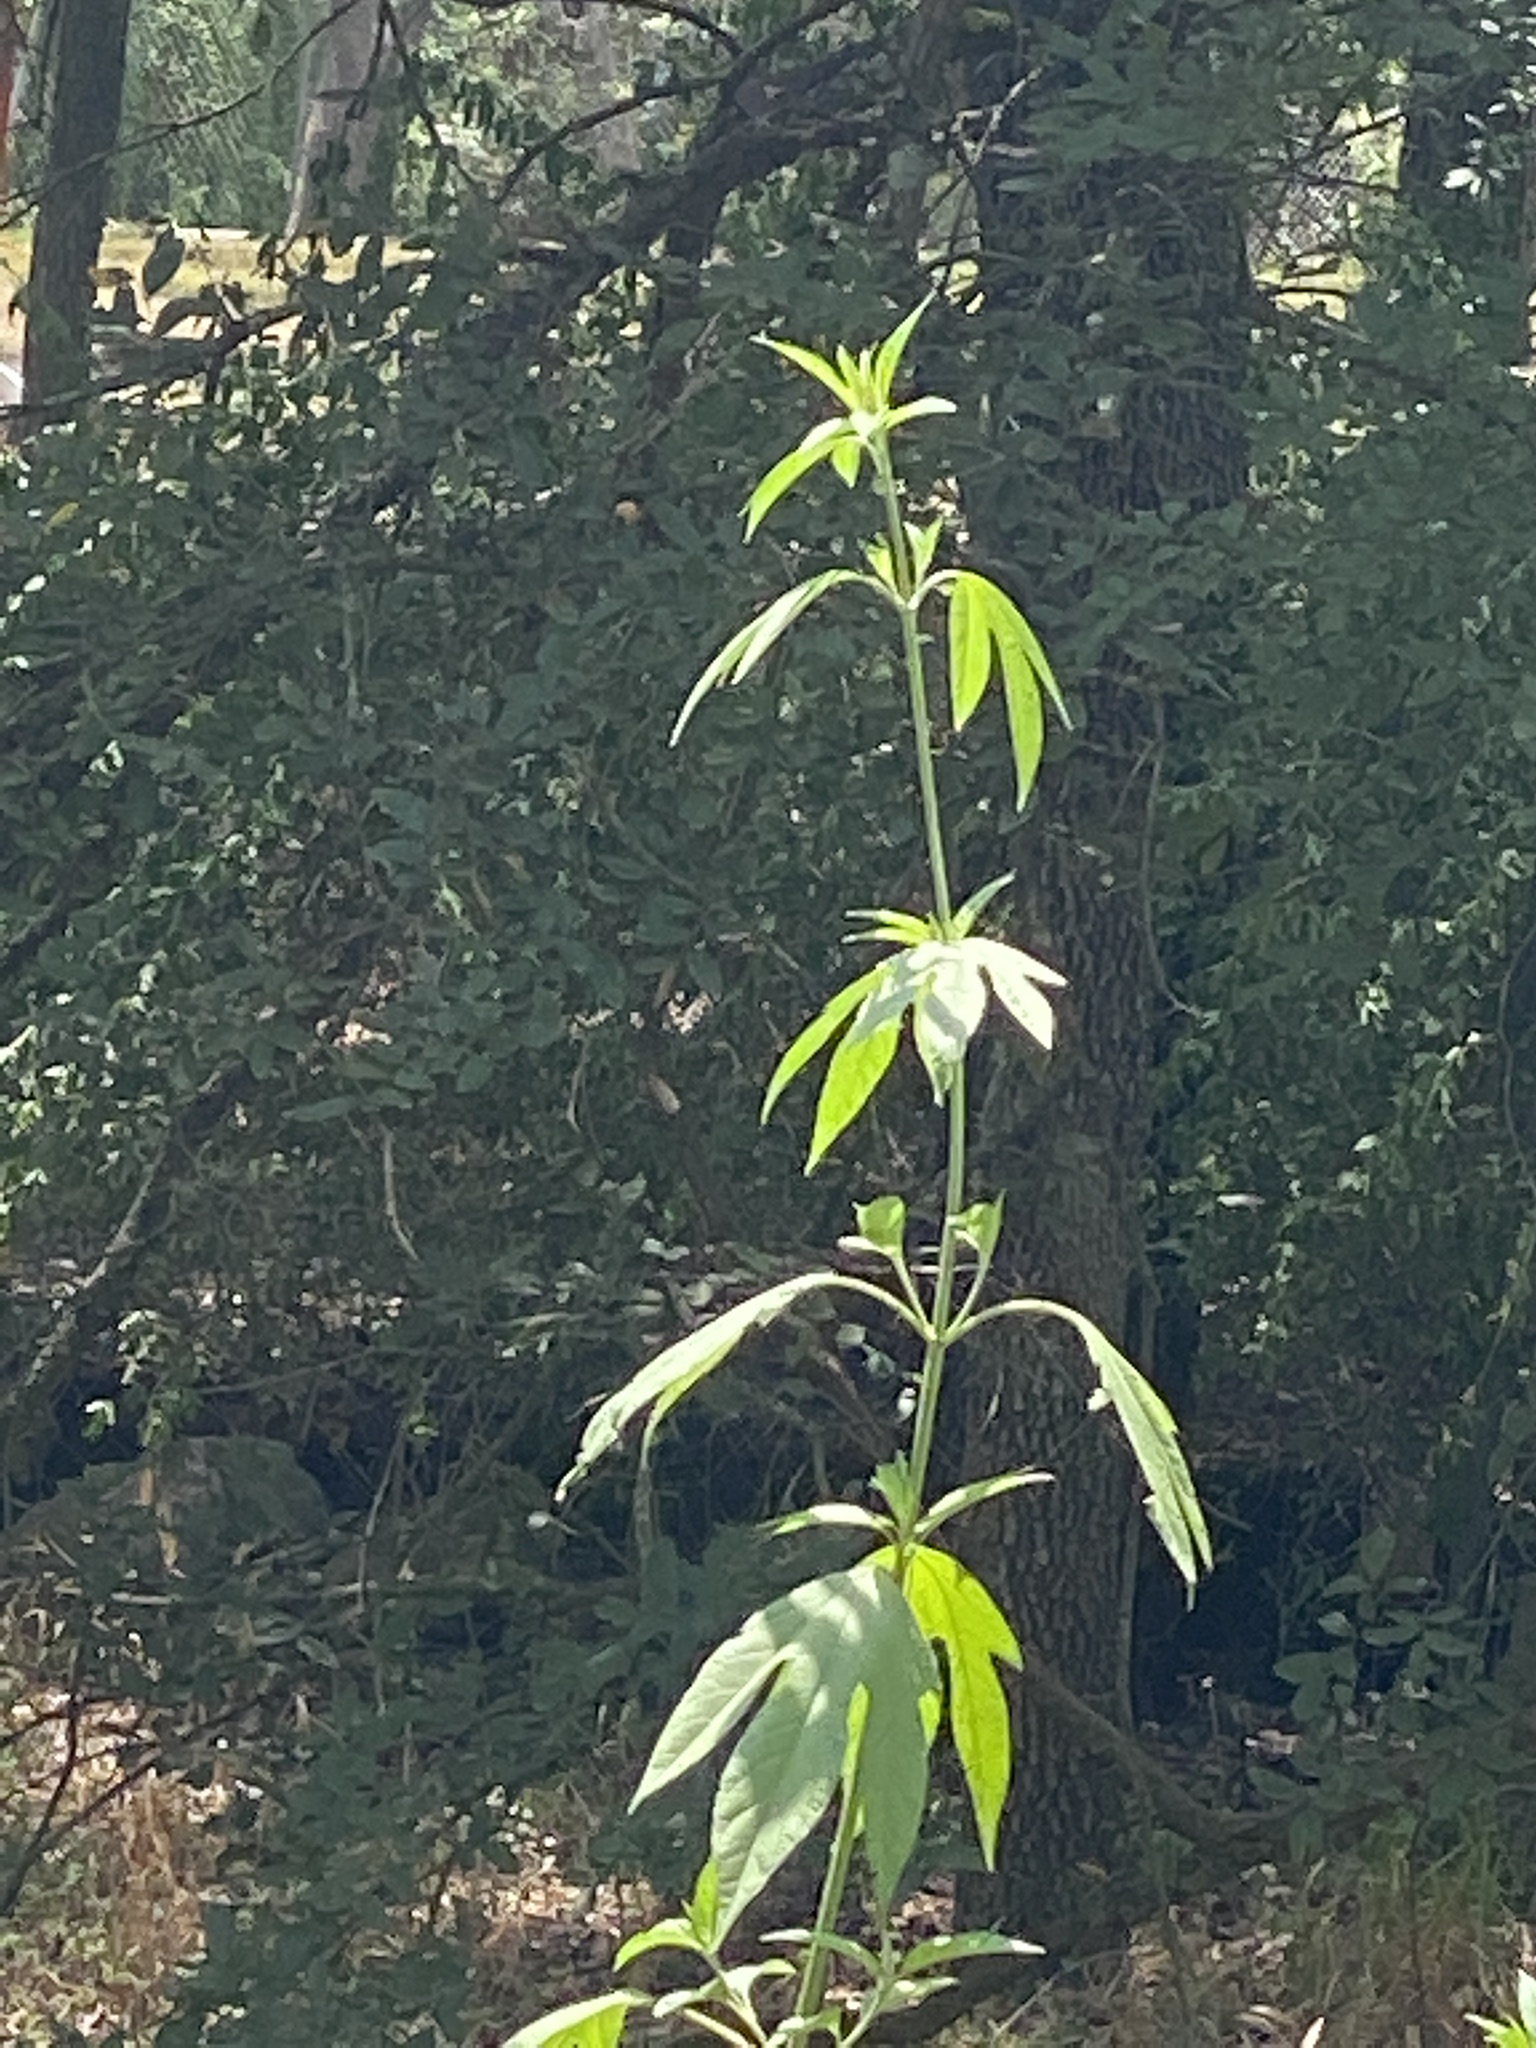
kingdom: Plantae
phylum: Tracheophyta
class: Magnoliopsida
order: Asterales
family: Asteraceae
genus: Ambrosia
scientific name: Ambrosia trifida
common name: Giant ragweed
